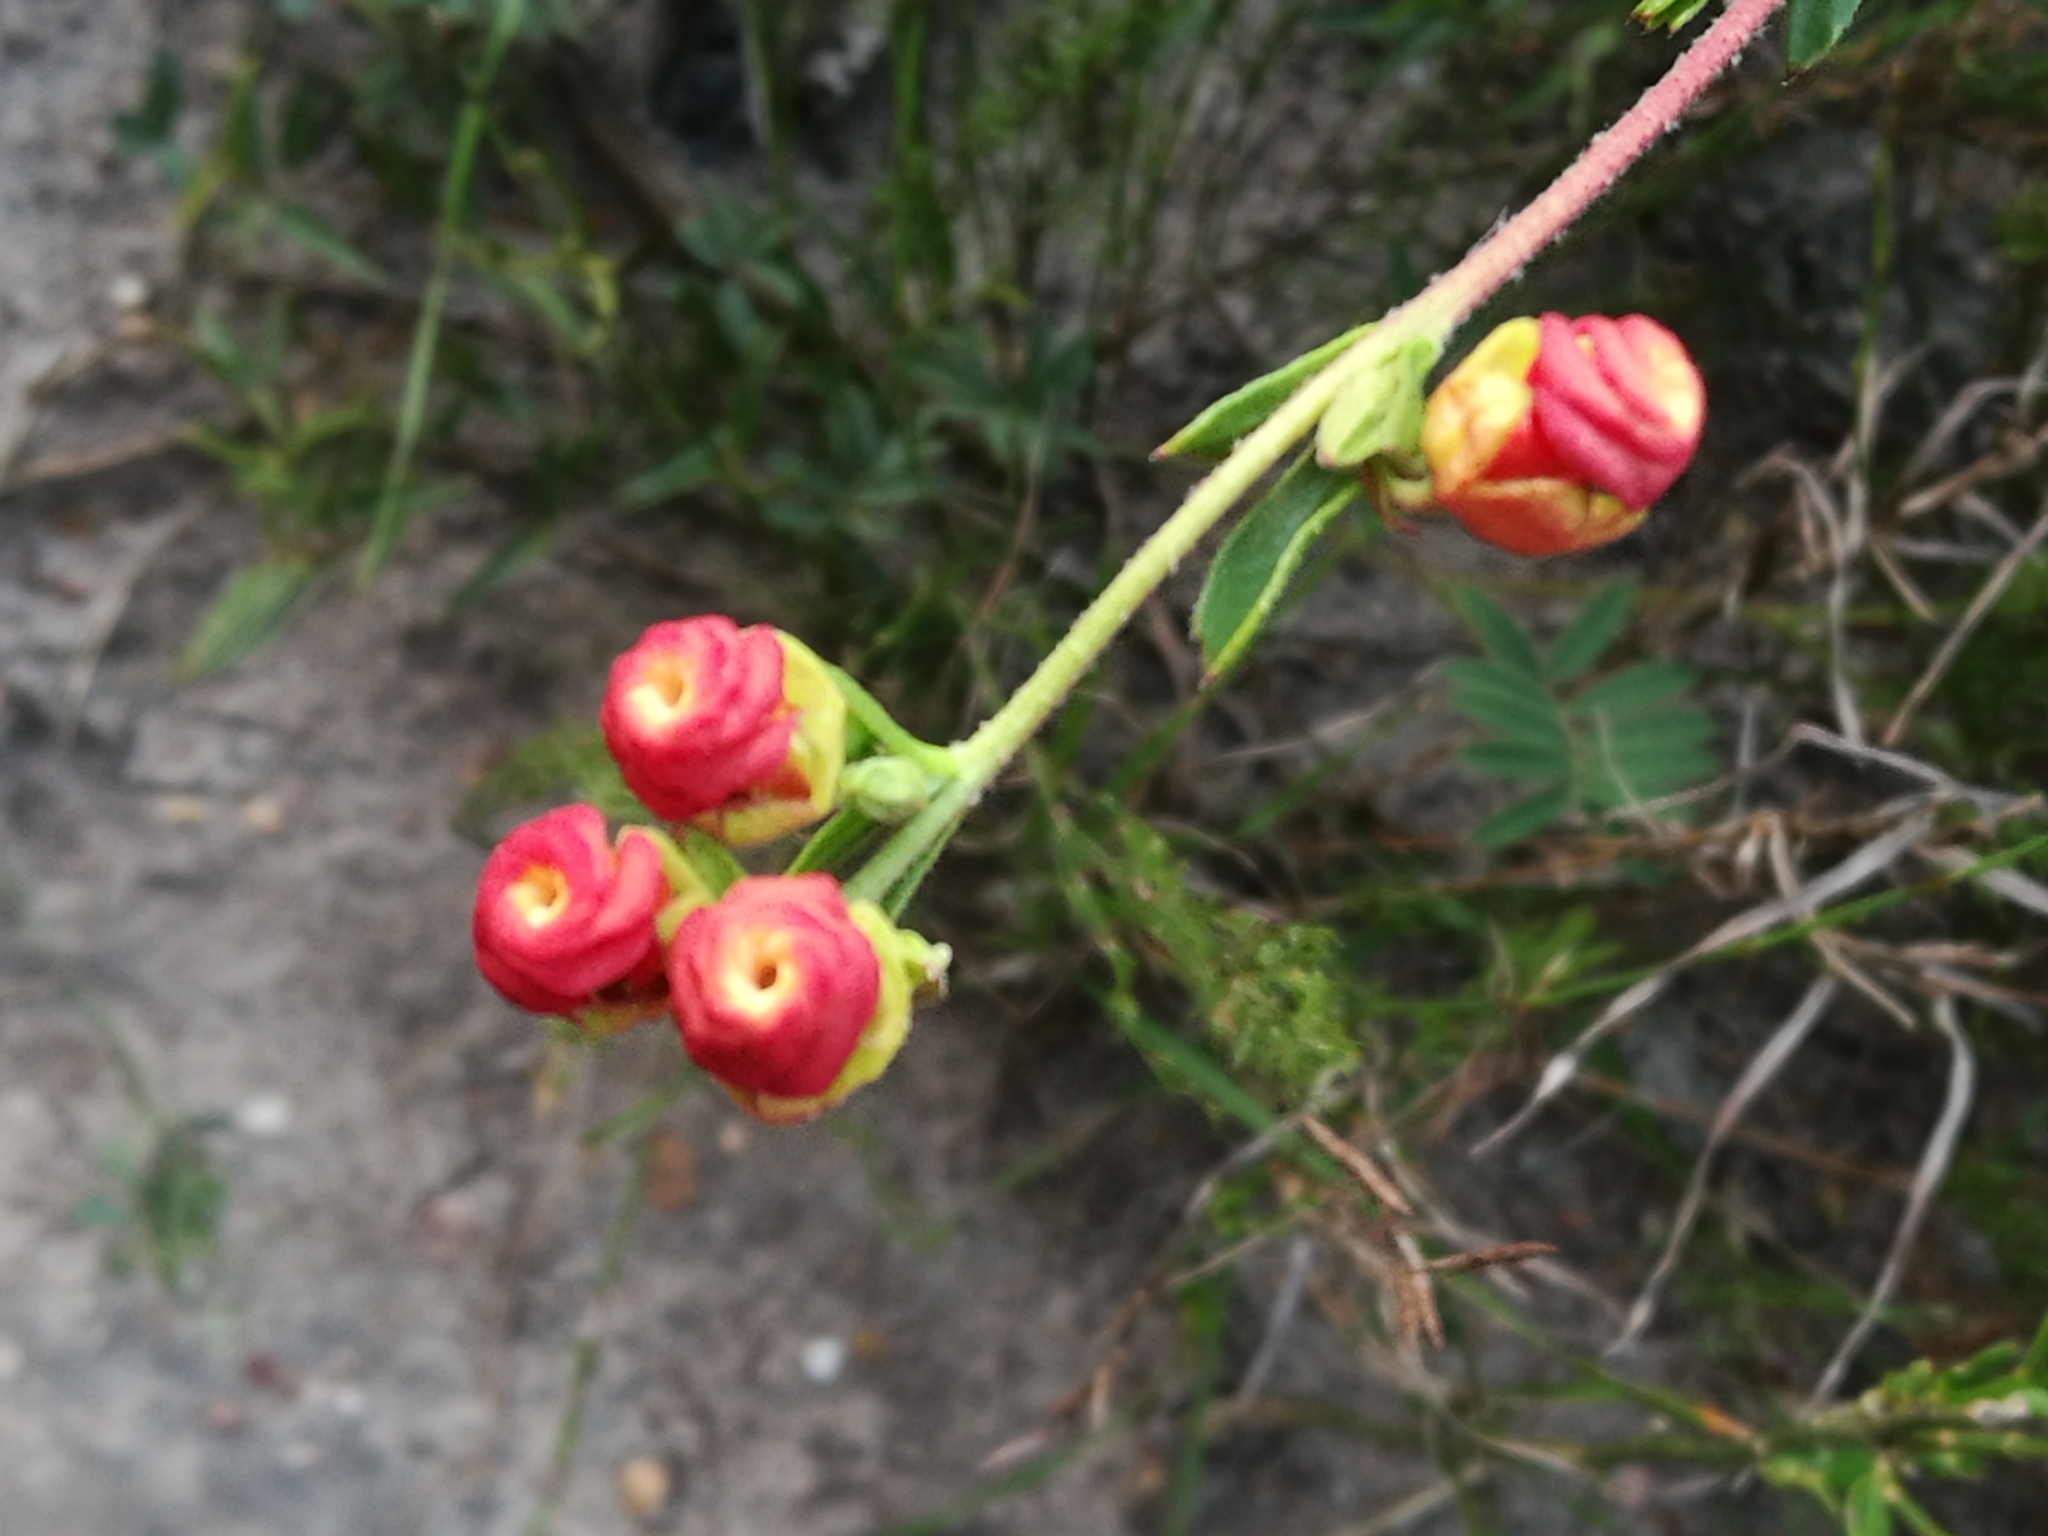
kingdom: Plantae
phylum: Tracheophyta
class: Magnoliopsida
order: Malvales
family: Malvaceae
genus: Hermannia
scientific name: Hermannia flammea
